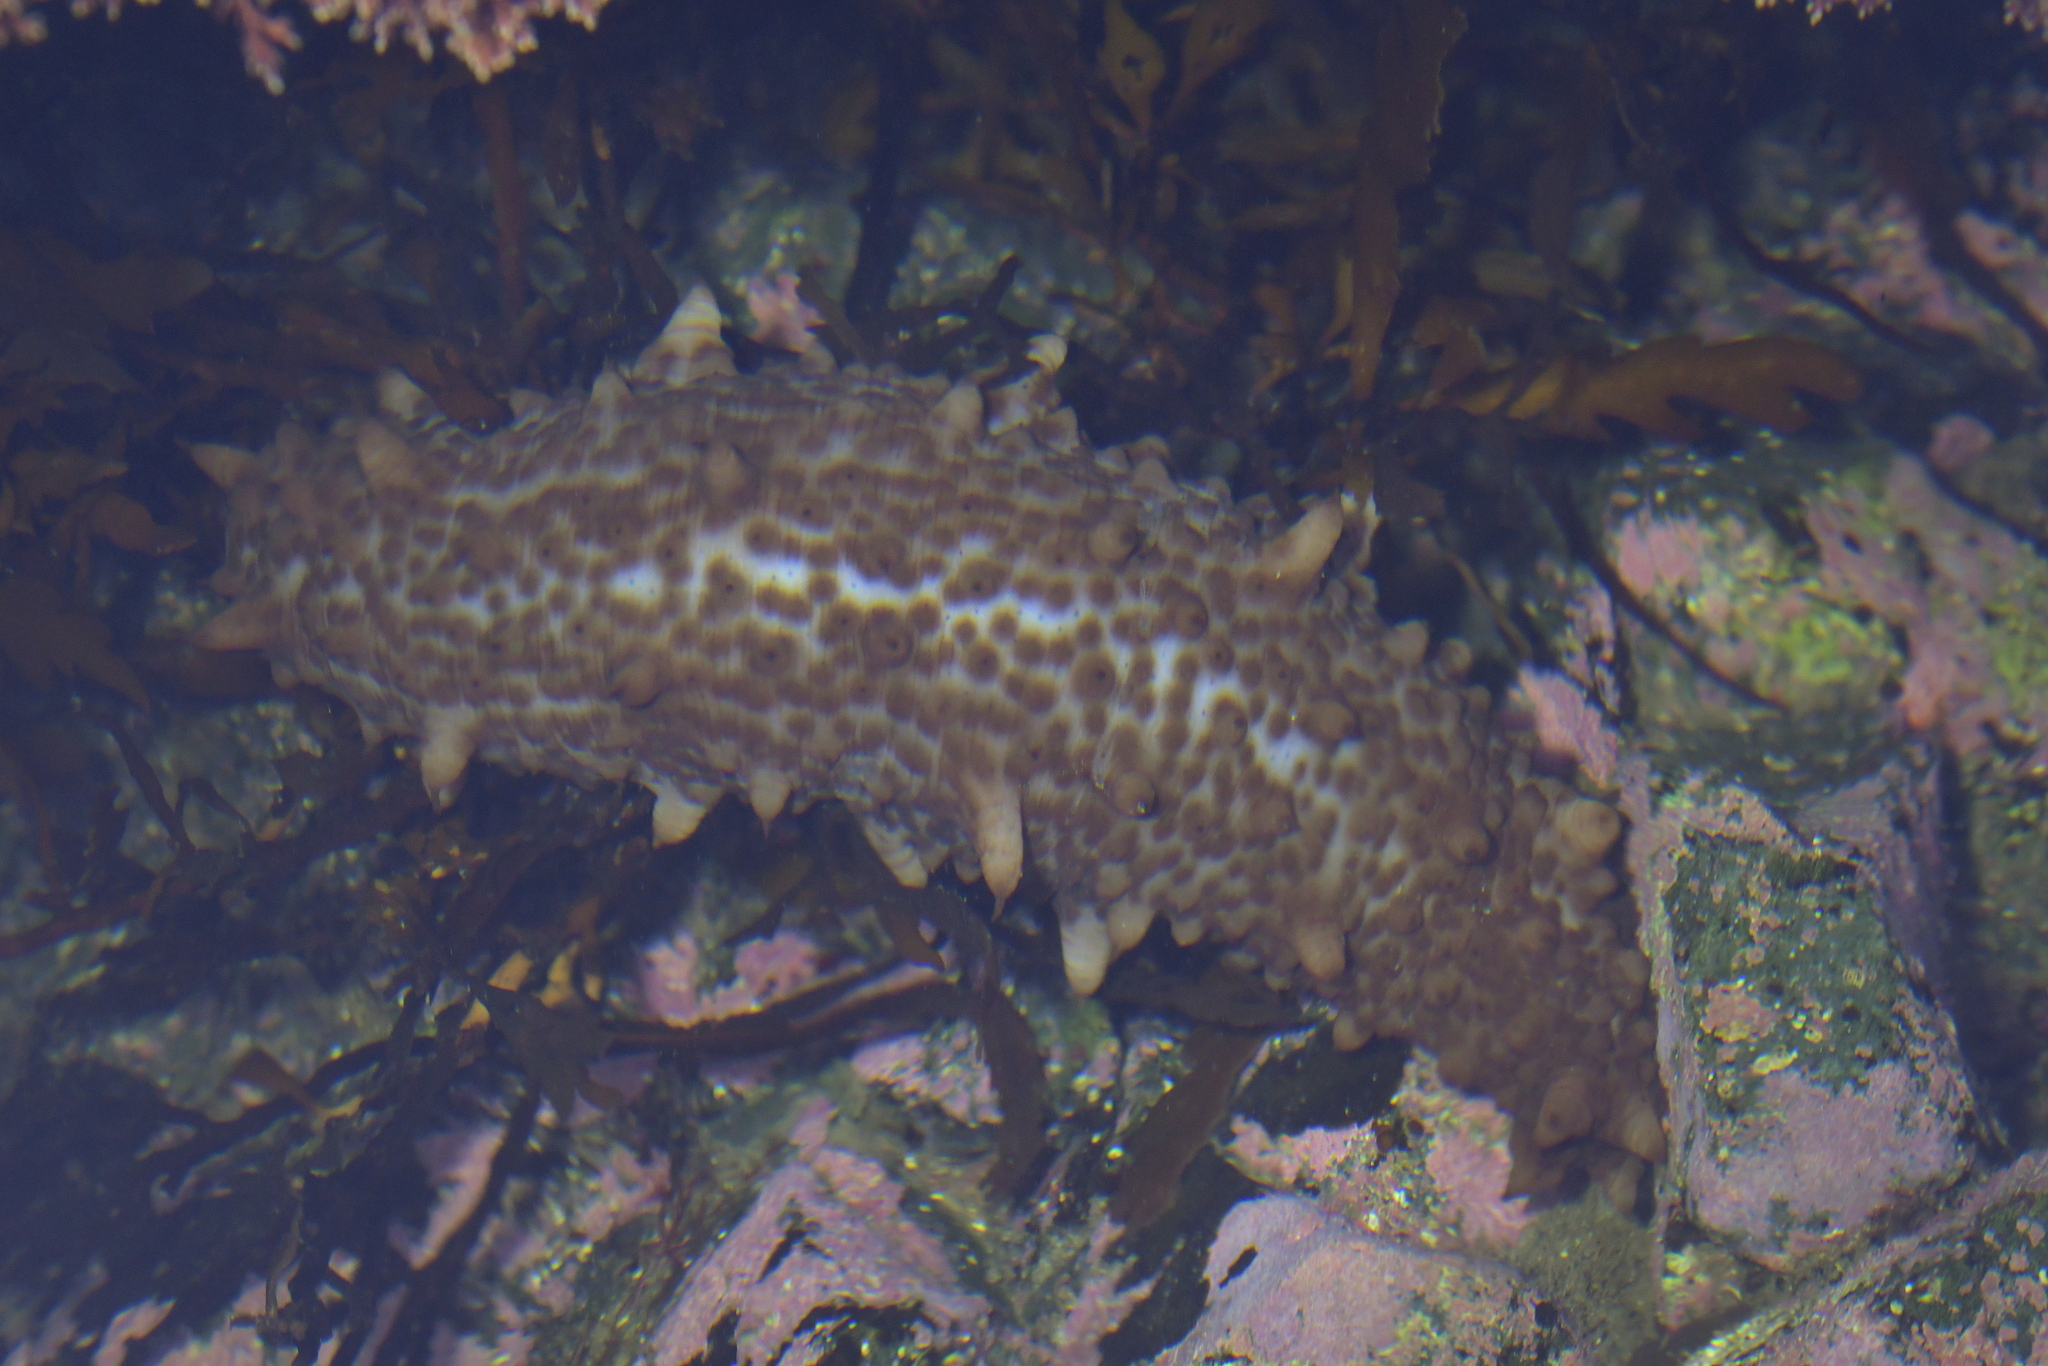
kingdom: Animalia
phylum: Echinodermata
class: Holothuroidea
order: Synallactida
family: Stichopodidae
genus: Australostichopus
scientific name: Australostichopus mollis
